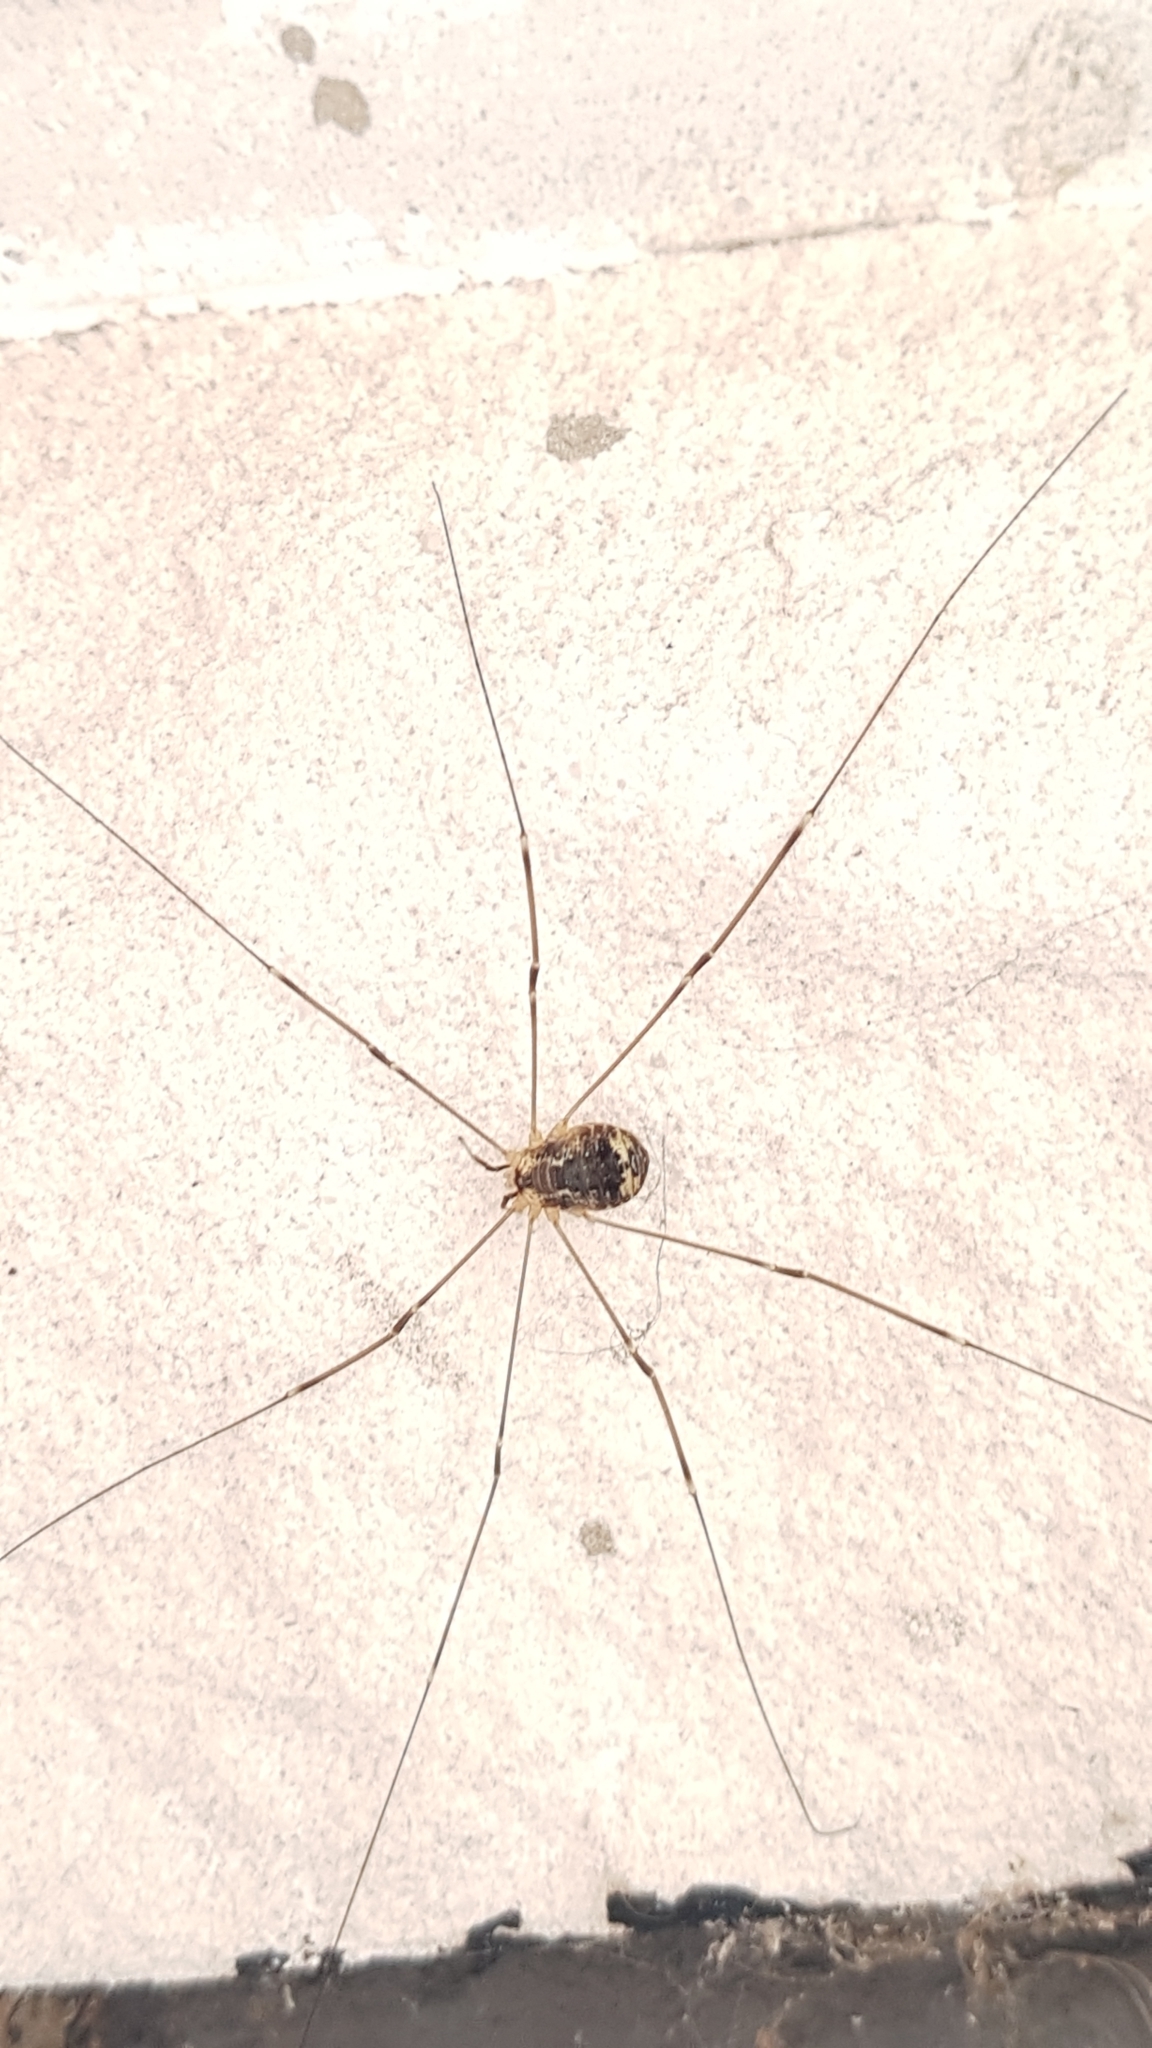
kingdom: Animalia
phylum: Arthropoda
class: Arachnida
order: Opiliones
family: Sclerosomatidae
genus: Leiobunum
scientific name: Leiobunum gracile
